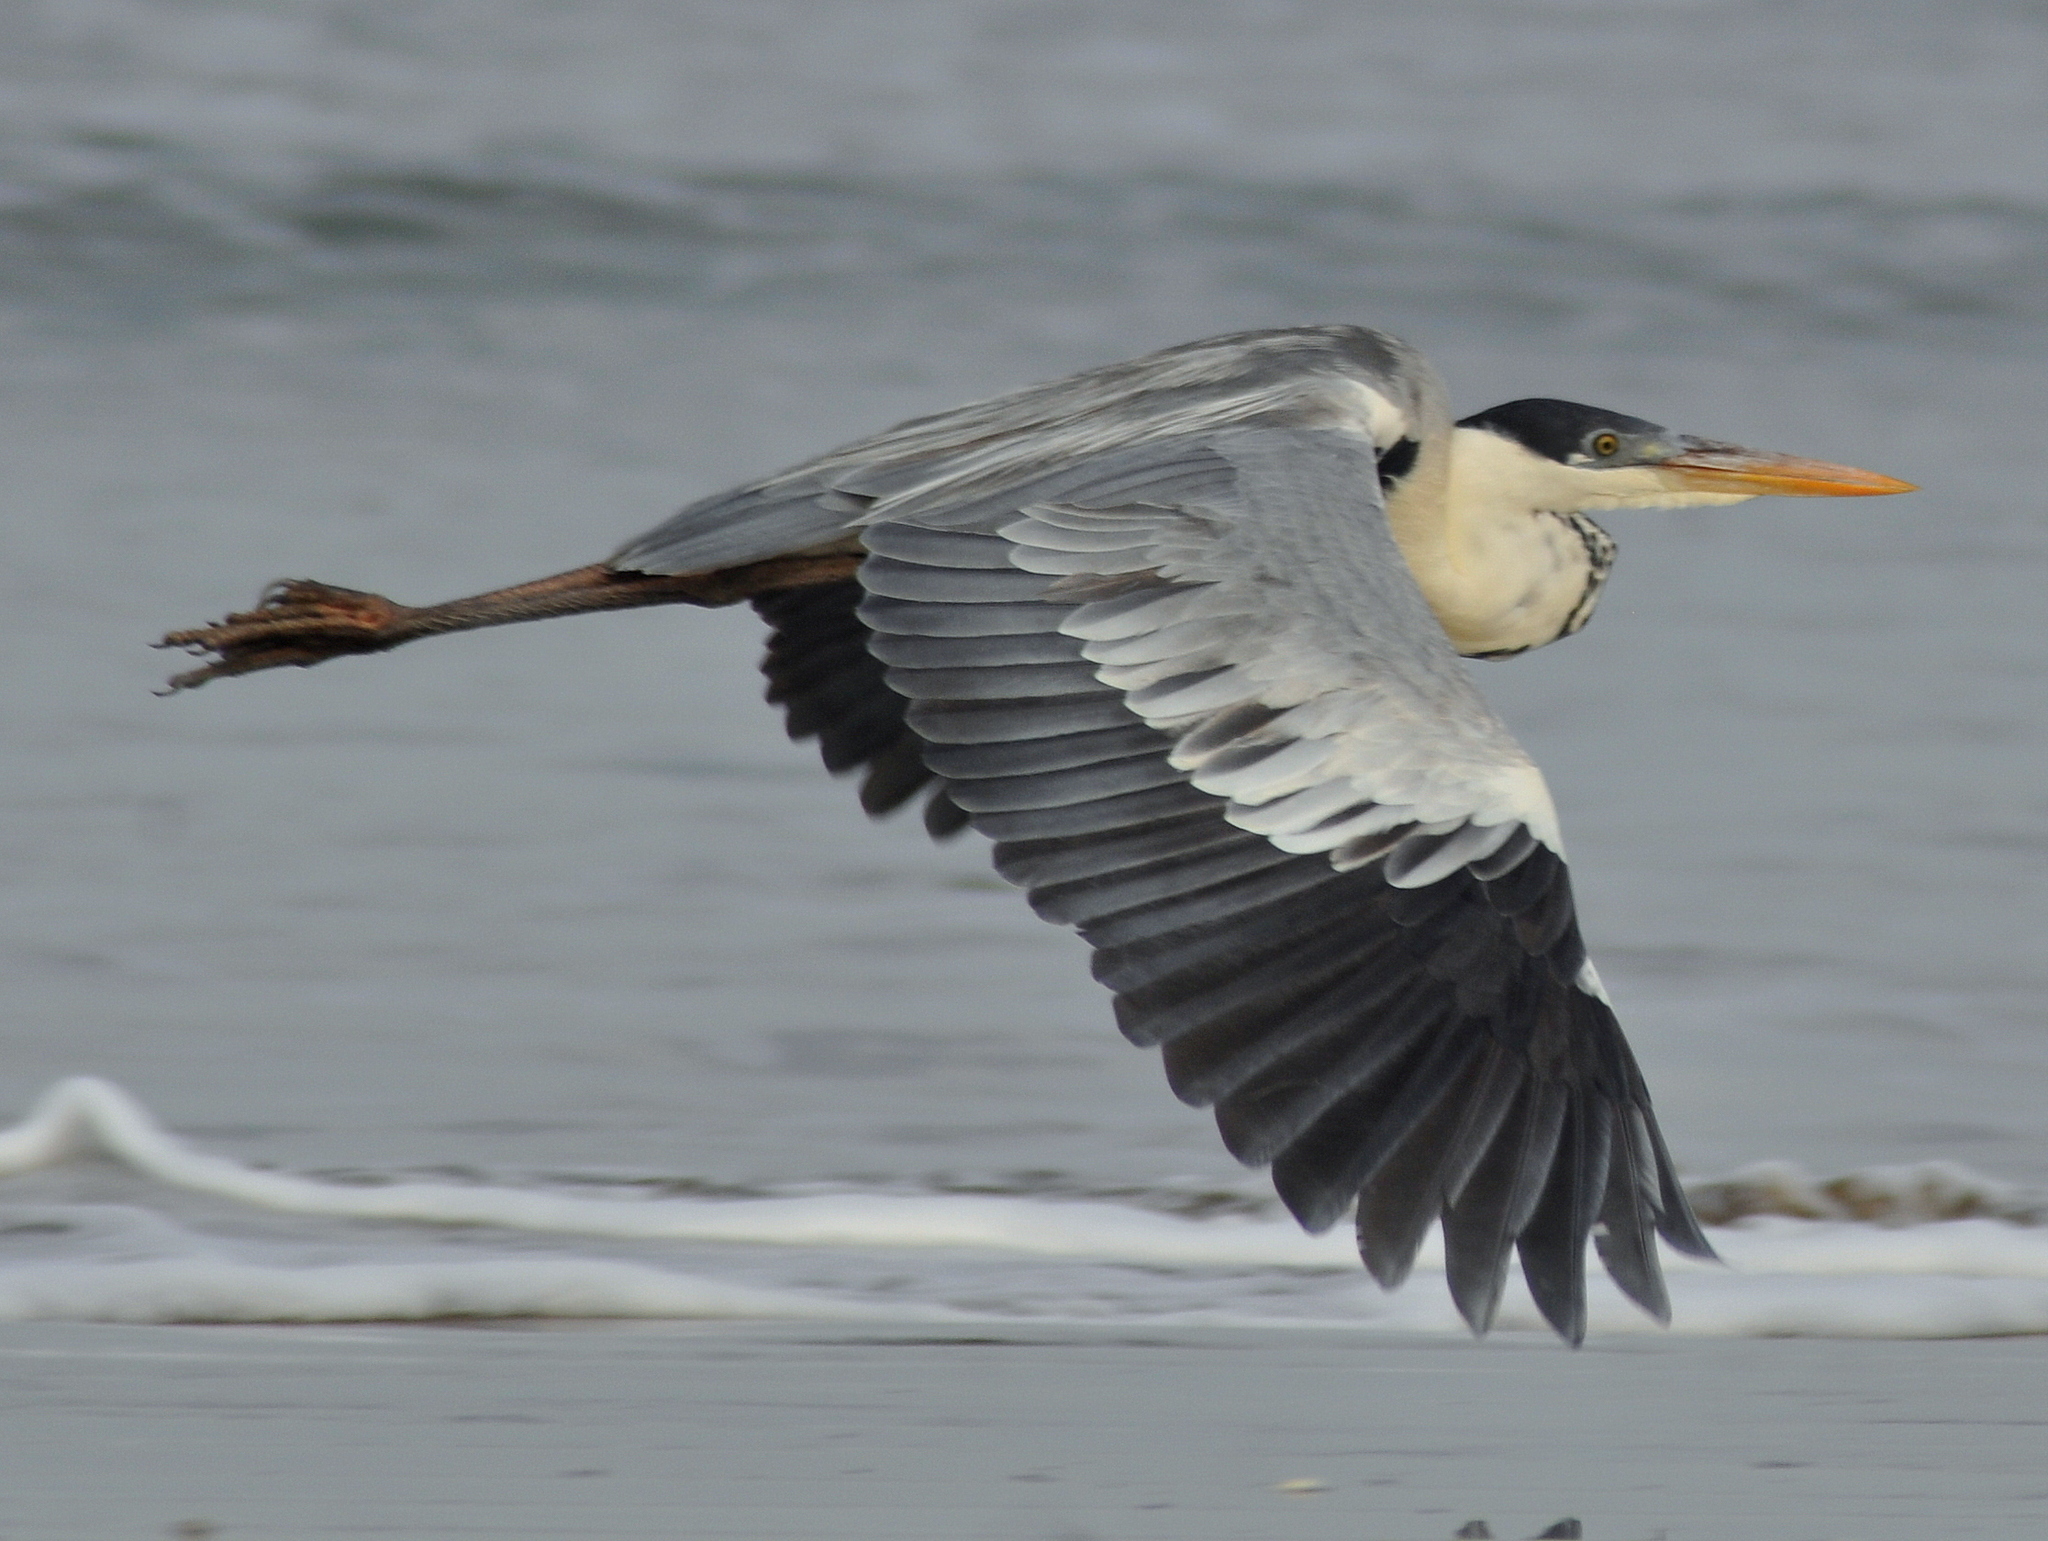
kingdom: Animalia
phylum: Chordata
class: Aves
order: Pelecaniformes
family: Ardeidae
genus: Ardea
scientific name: Ardea cocoi
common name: Cocoi heron
